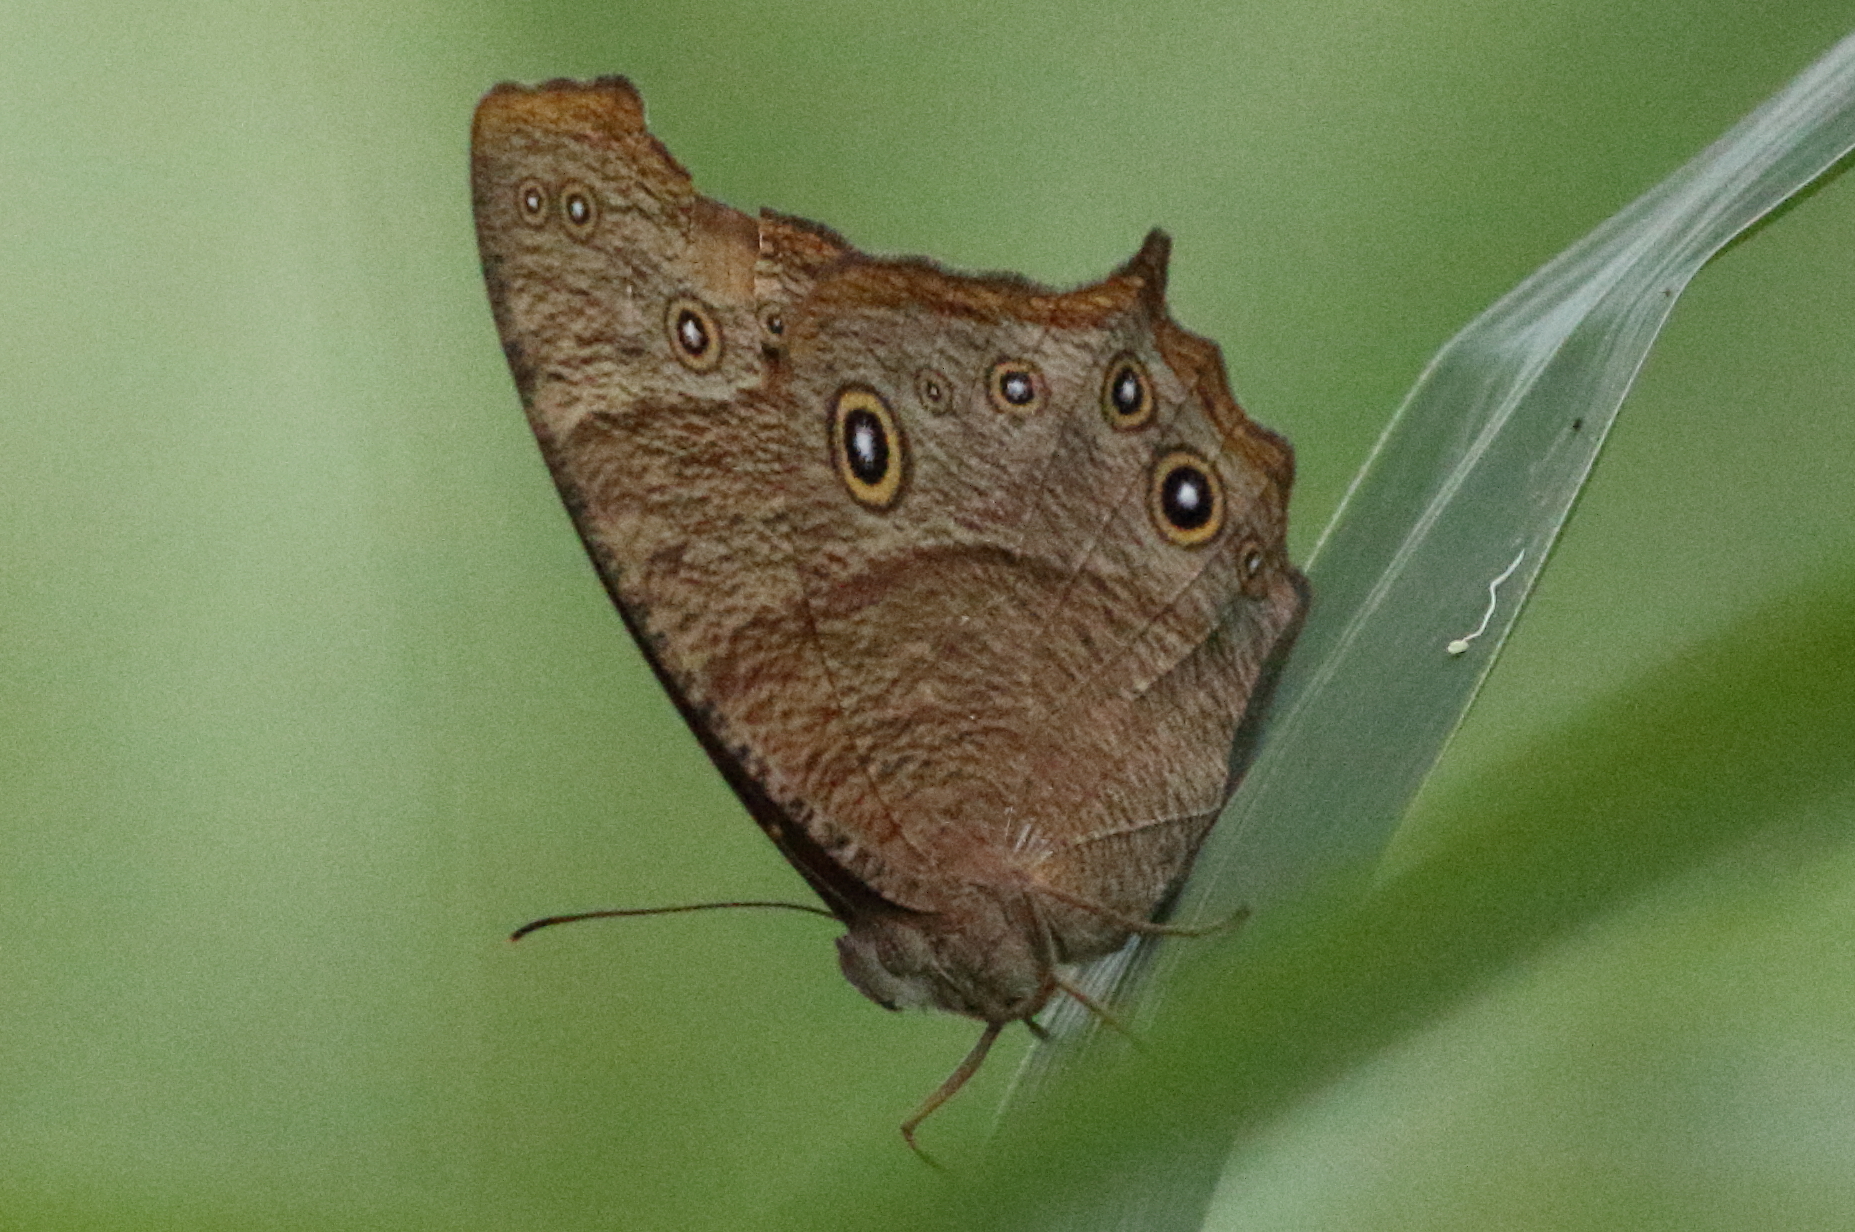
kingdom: Animalia
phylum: Arthropoda
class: Insecta
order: Lepidoptera
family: Nymphalidae
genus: Melanitis
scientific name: Melanitis leda
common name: Twilight brown
